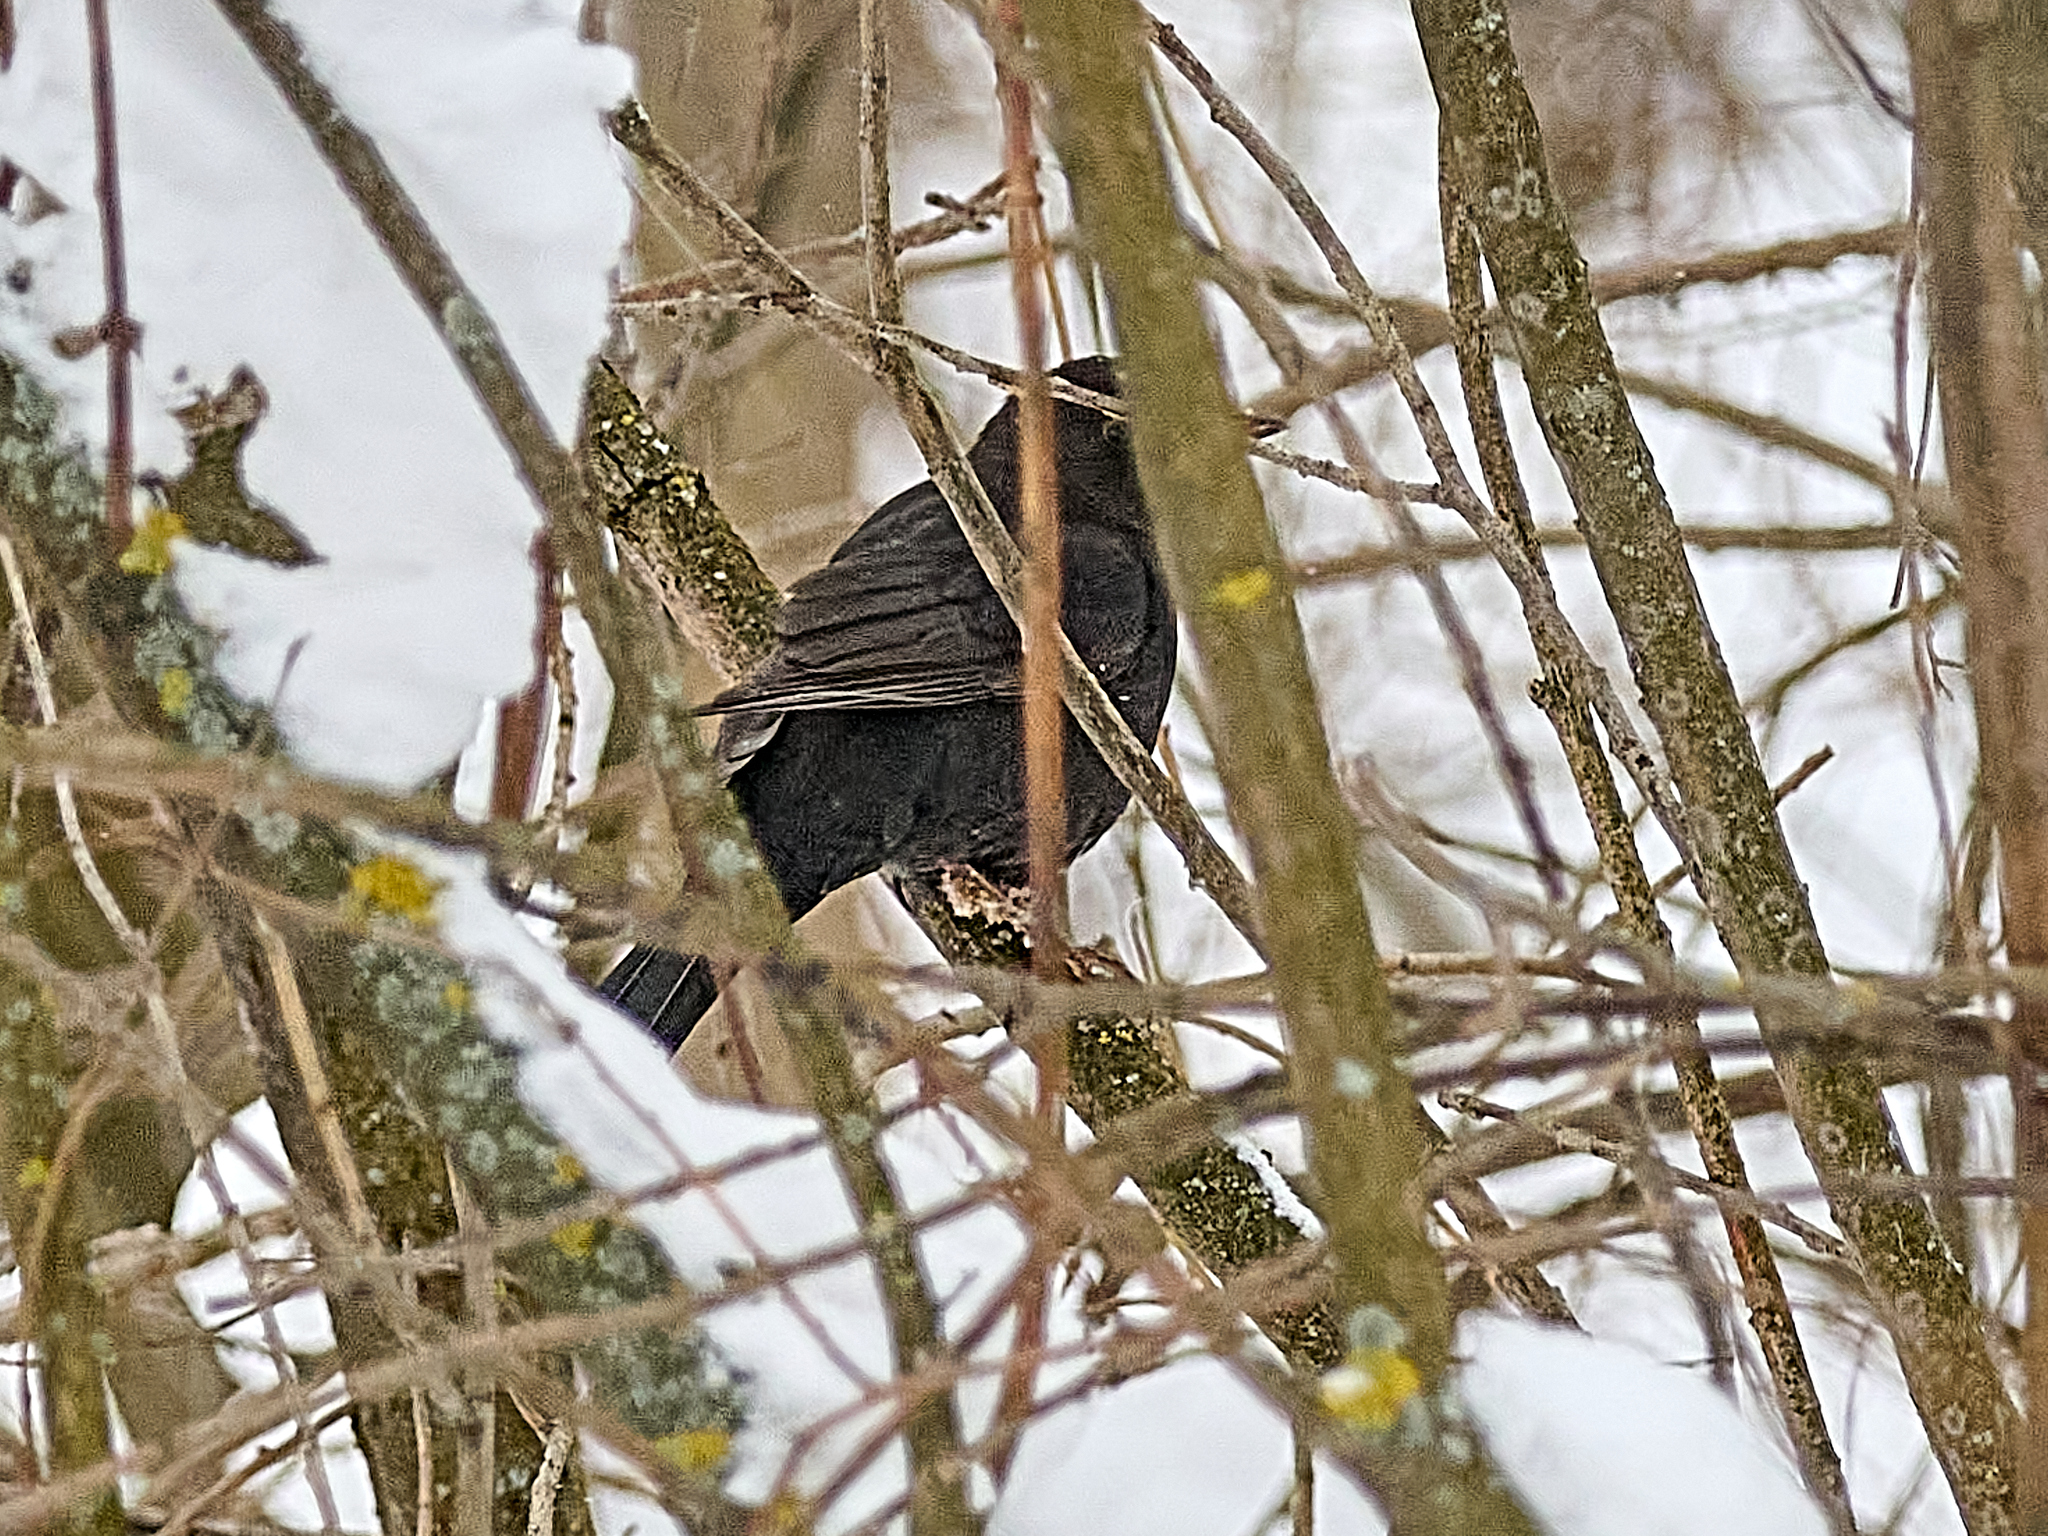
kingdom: Animalia
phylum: Chordata
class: Aves
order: Passeriformes
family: Turdidae
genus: Turdus
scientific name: Turdus merula
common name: Common blackbird
